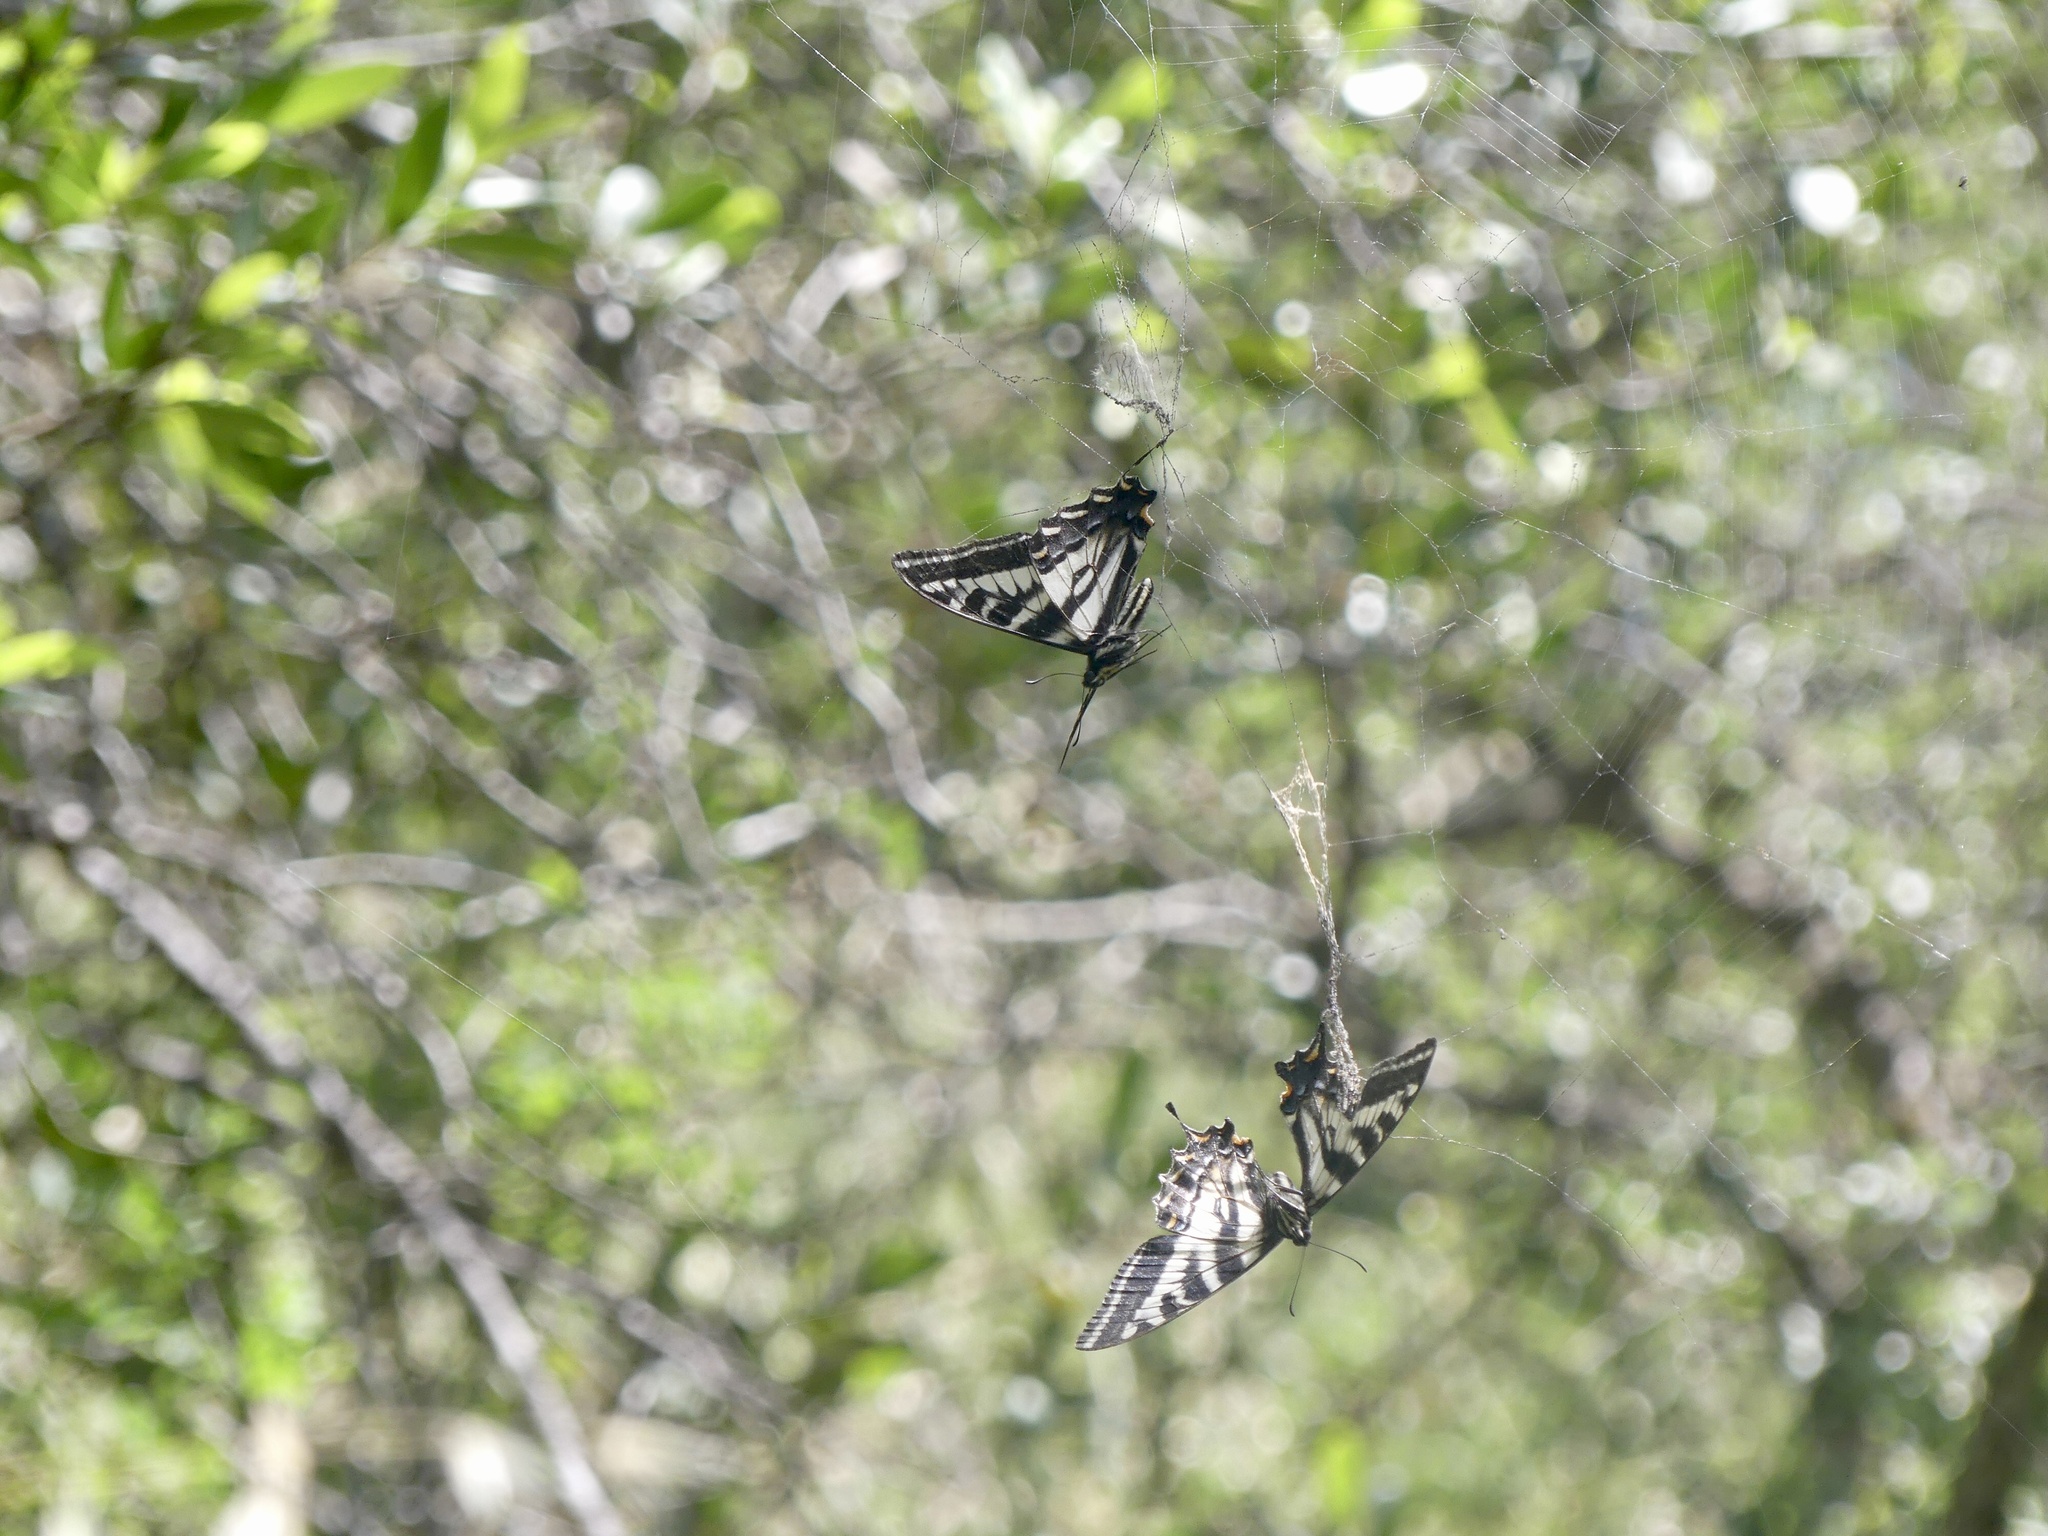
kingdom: Animalia
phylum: Arthropoda
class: Insecta
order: Lepidoptera
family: Papilionidae
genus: Papilio
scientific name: Papilio eurymedon
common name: Pale tiger swallowtail
